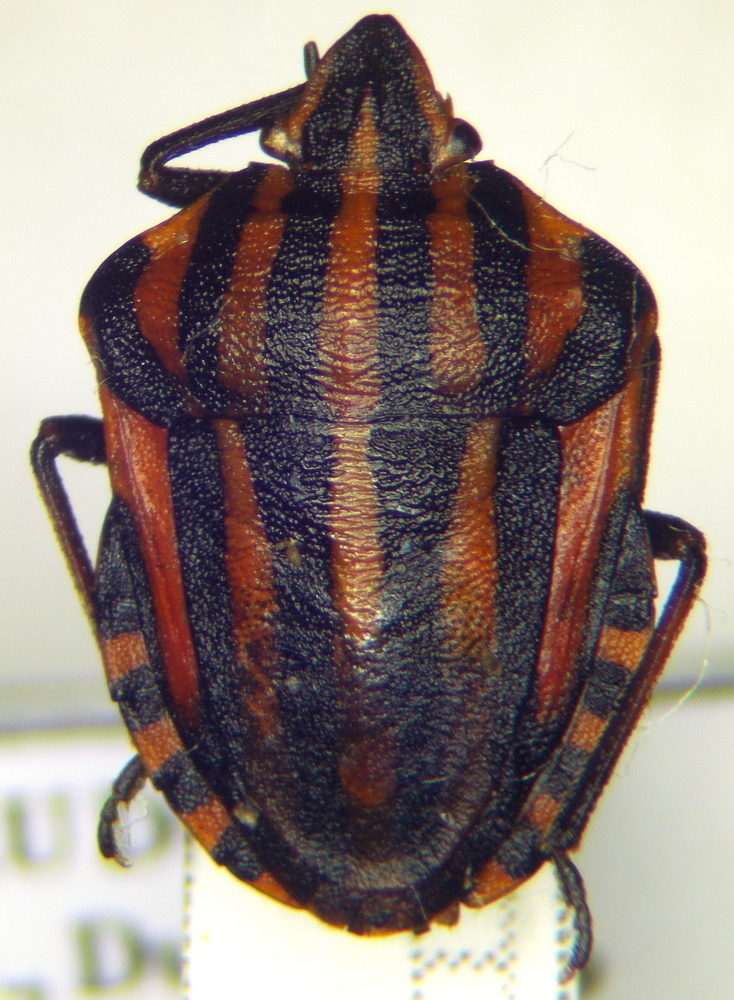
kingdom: Animalia
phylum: Arthropoda
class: Insecta
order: Hemiptera
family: Pentatomidae
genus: Graphosoma
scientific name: Graphosoma italicum
